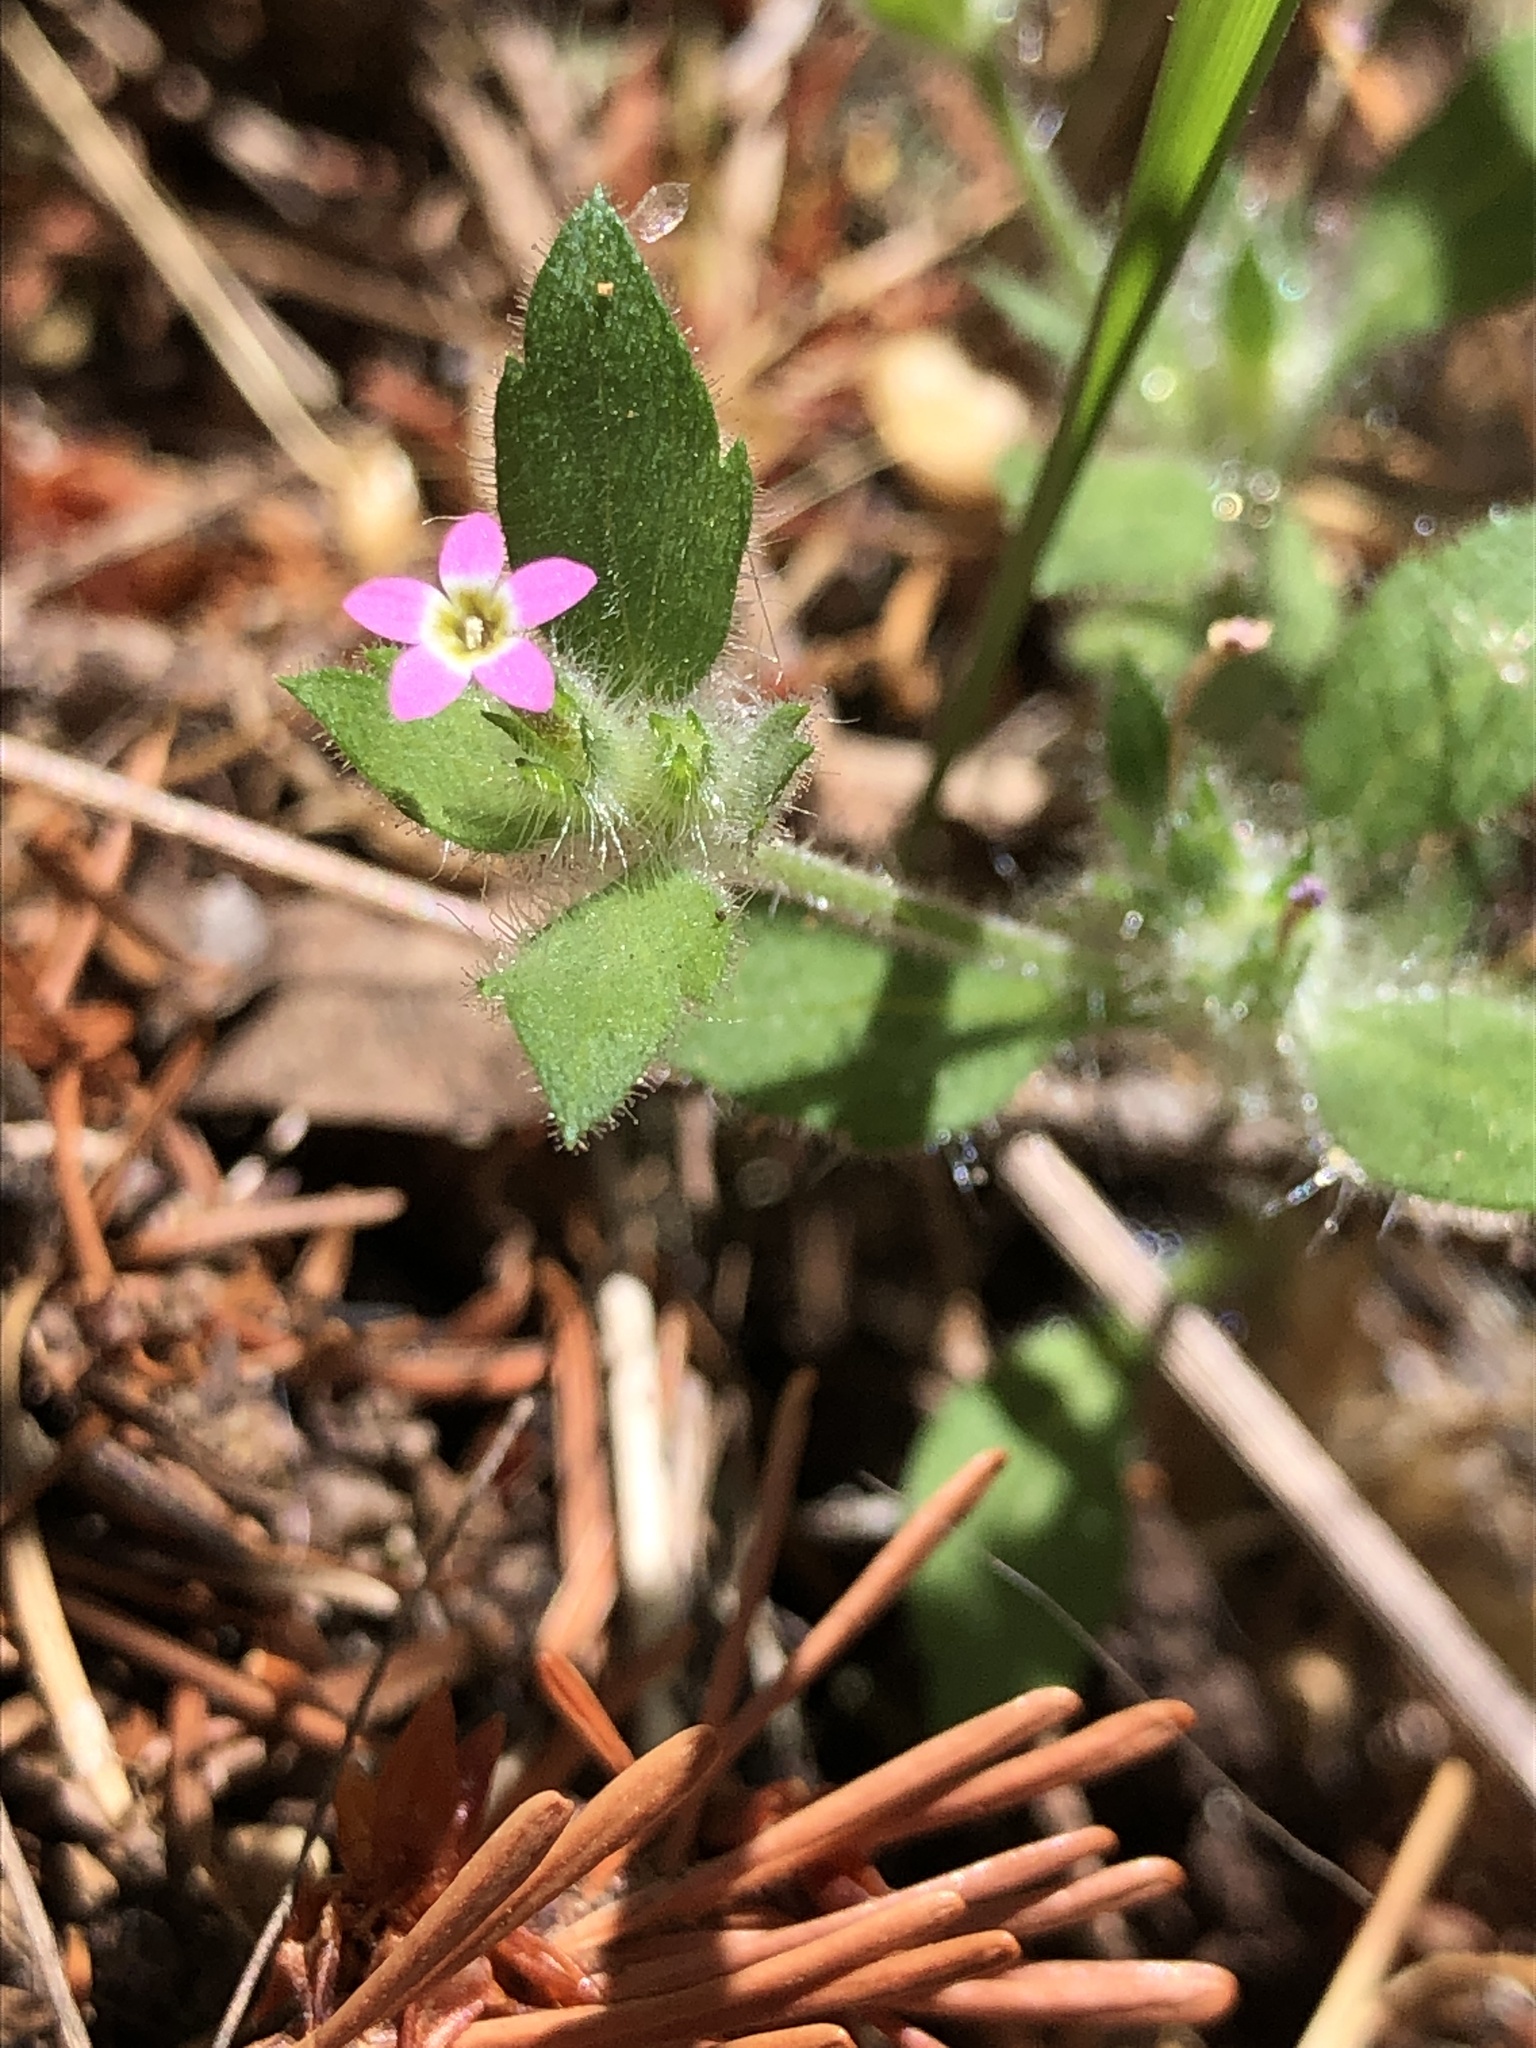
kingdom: Plantae
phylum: Tracheophyta
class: Magnoliopsida
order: Ericales
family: Polemoniaceae
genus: Collomia
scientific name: Collomia heterophylla
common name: Variable-leaved collomia
